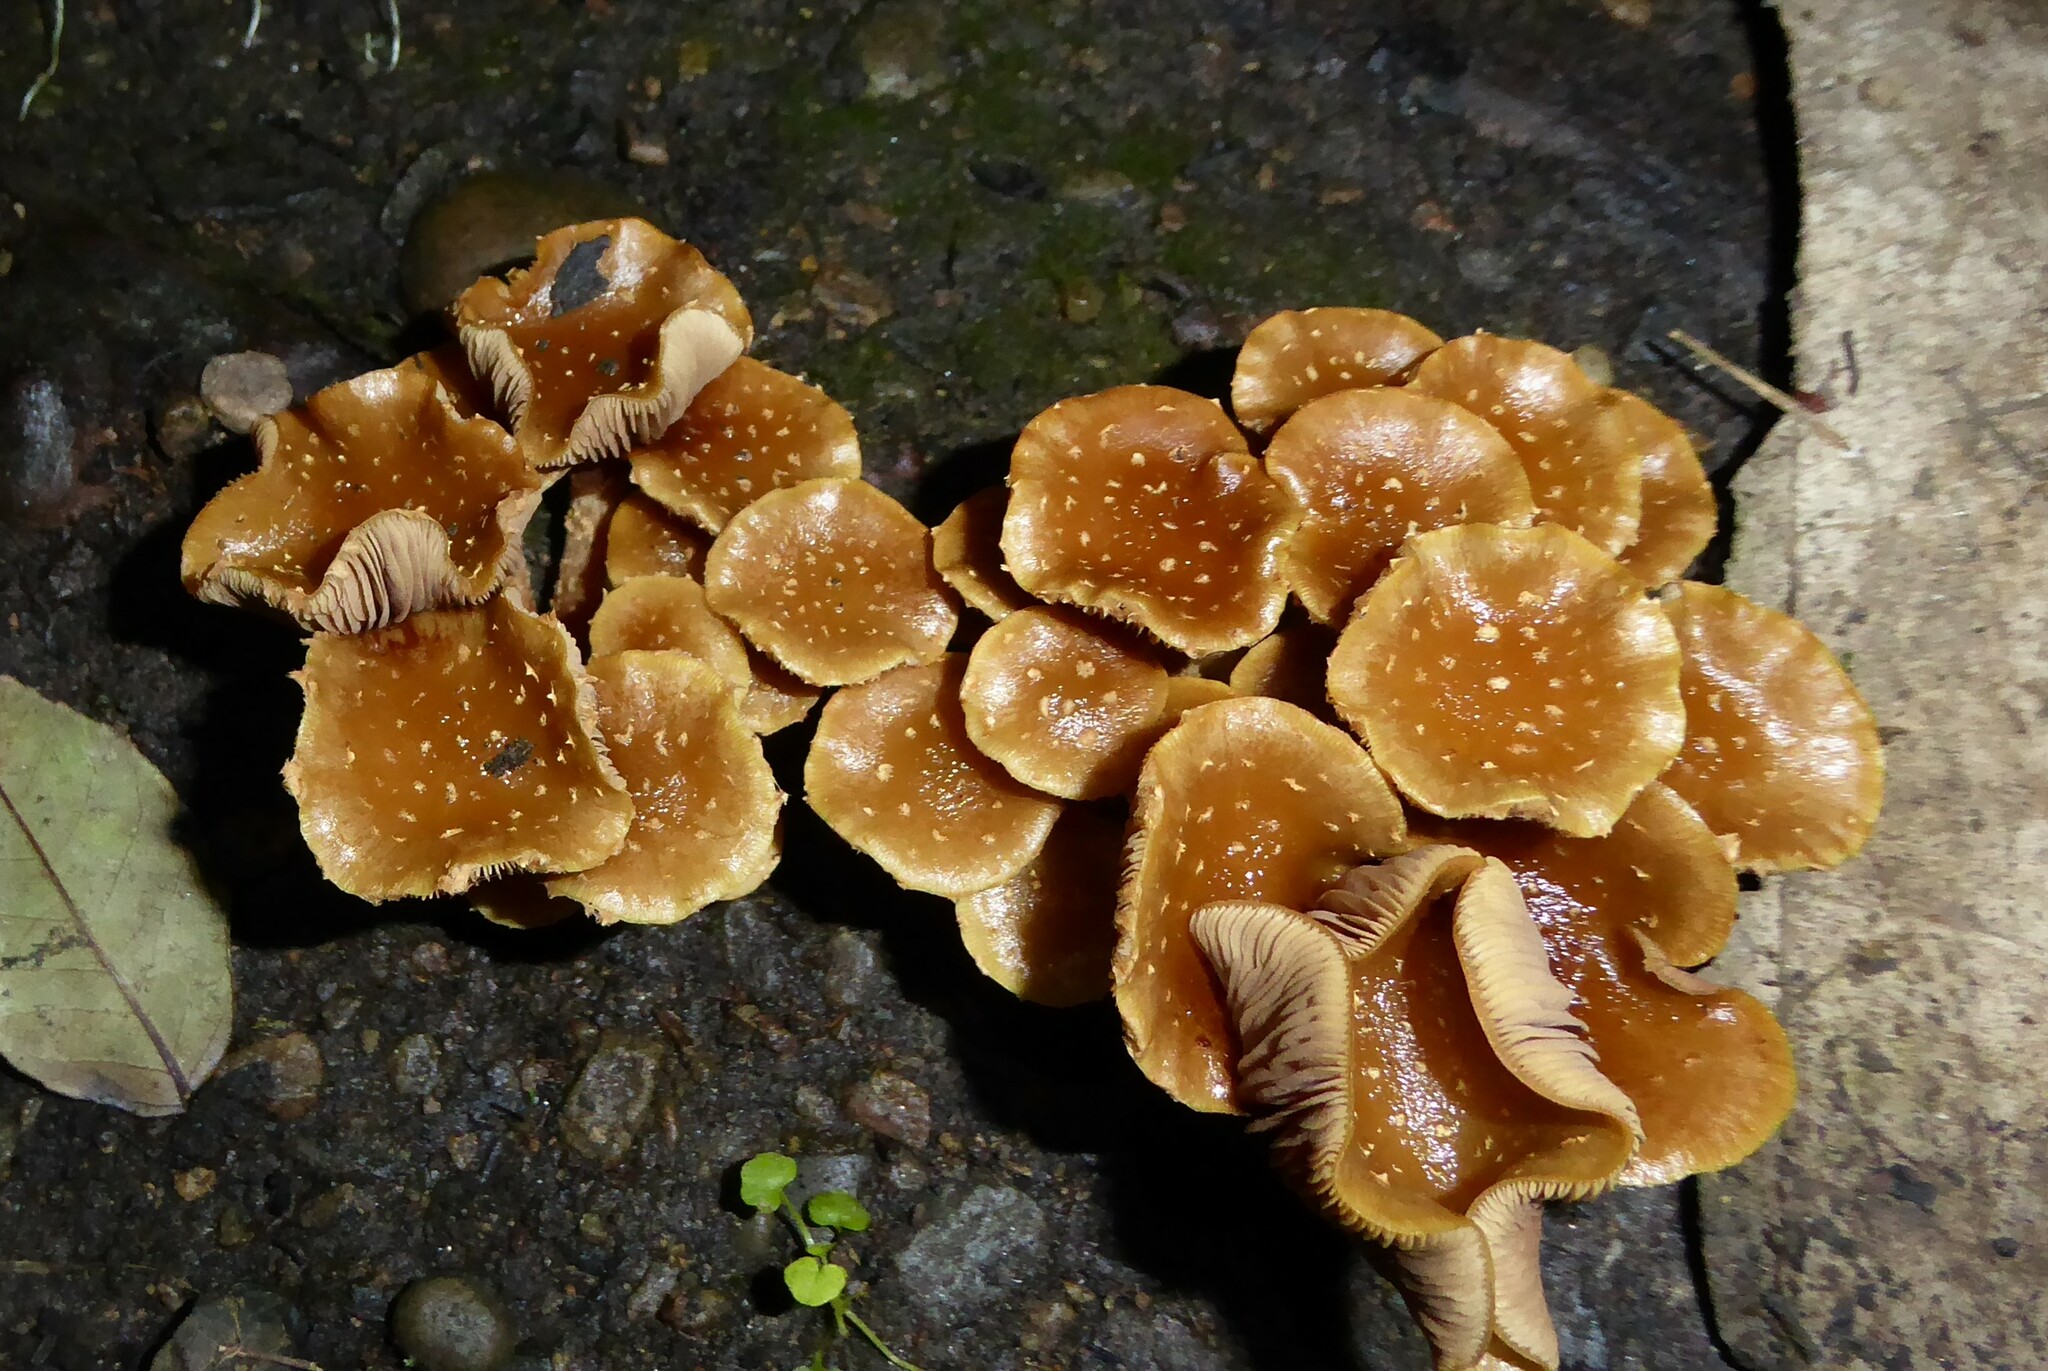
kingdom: Fungi
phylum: Basidiomycota
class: Agaricomycetes
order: Agaricales
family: Strophariaceae
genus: Pholiota
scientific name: Pholiota subflammans
